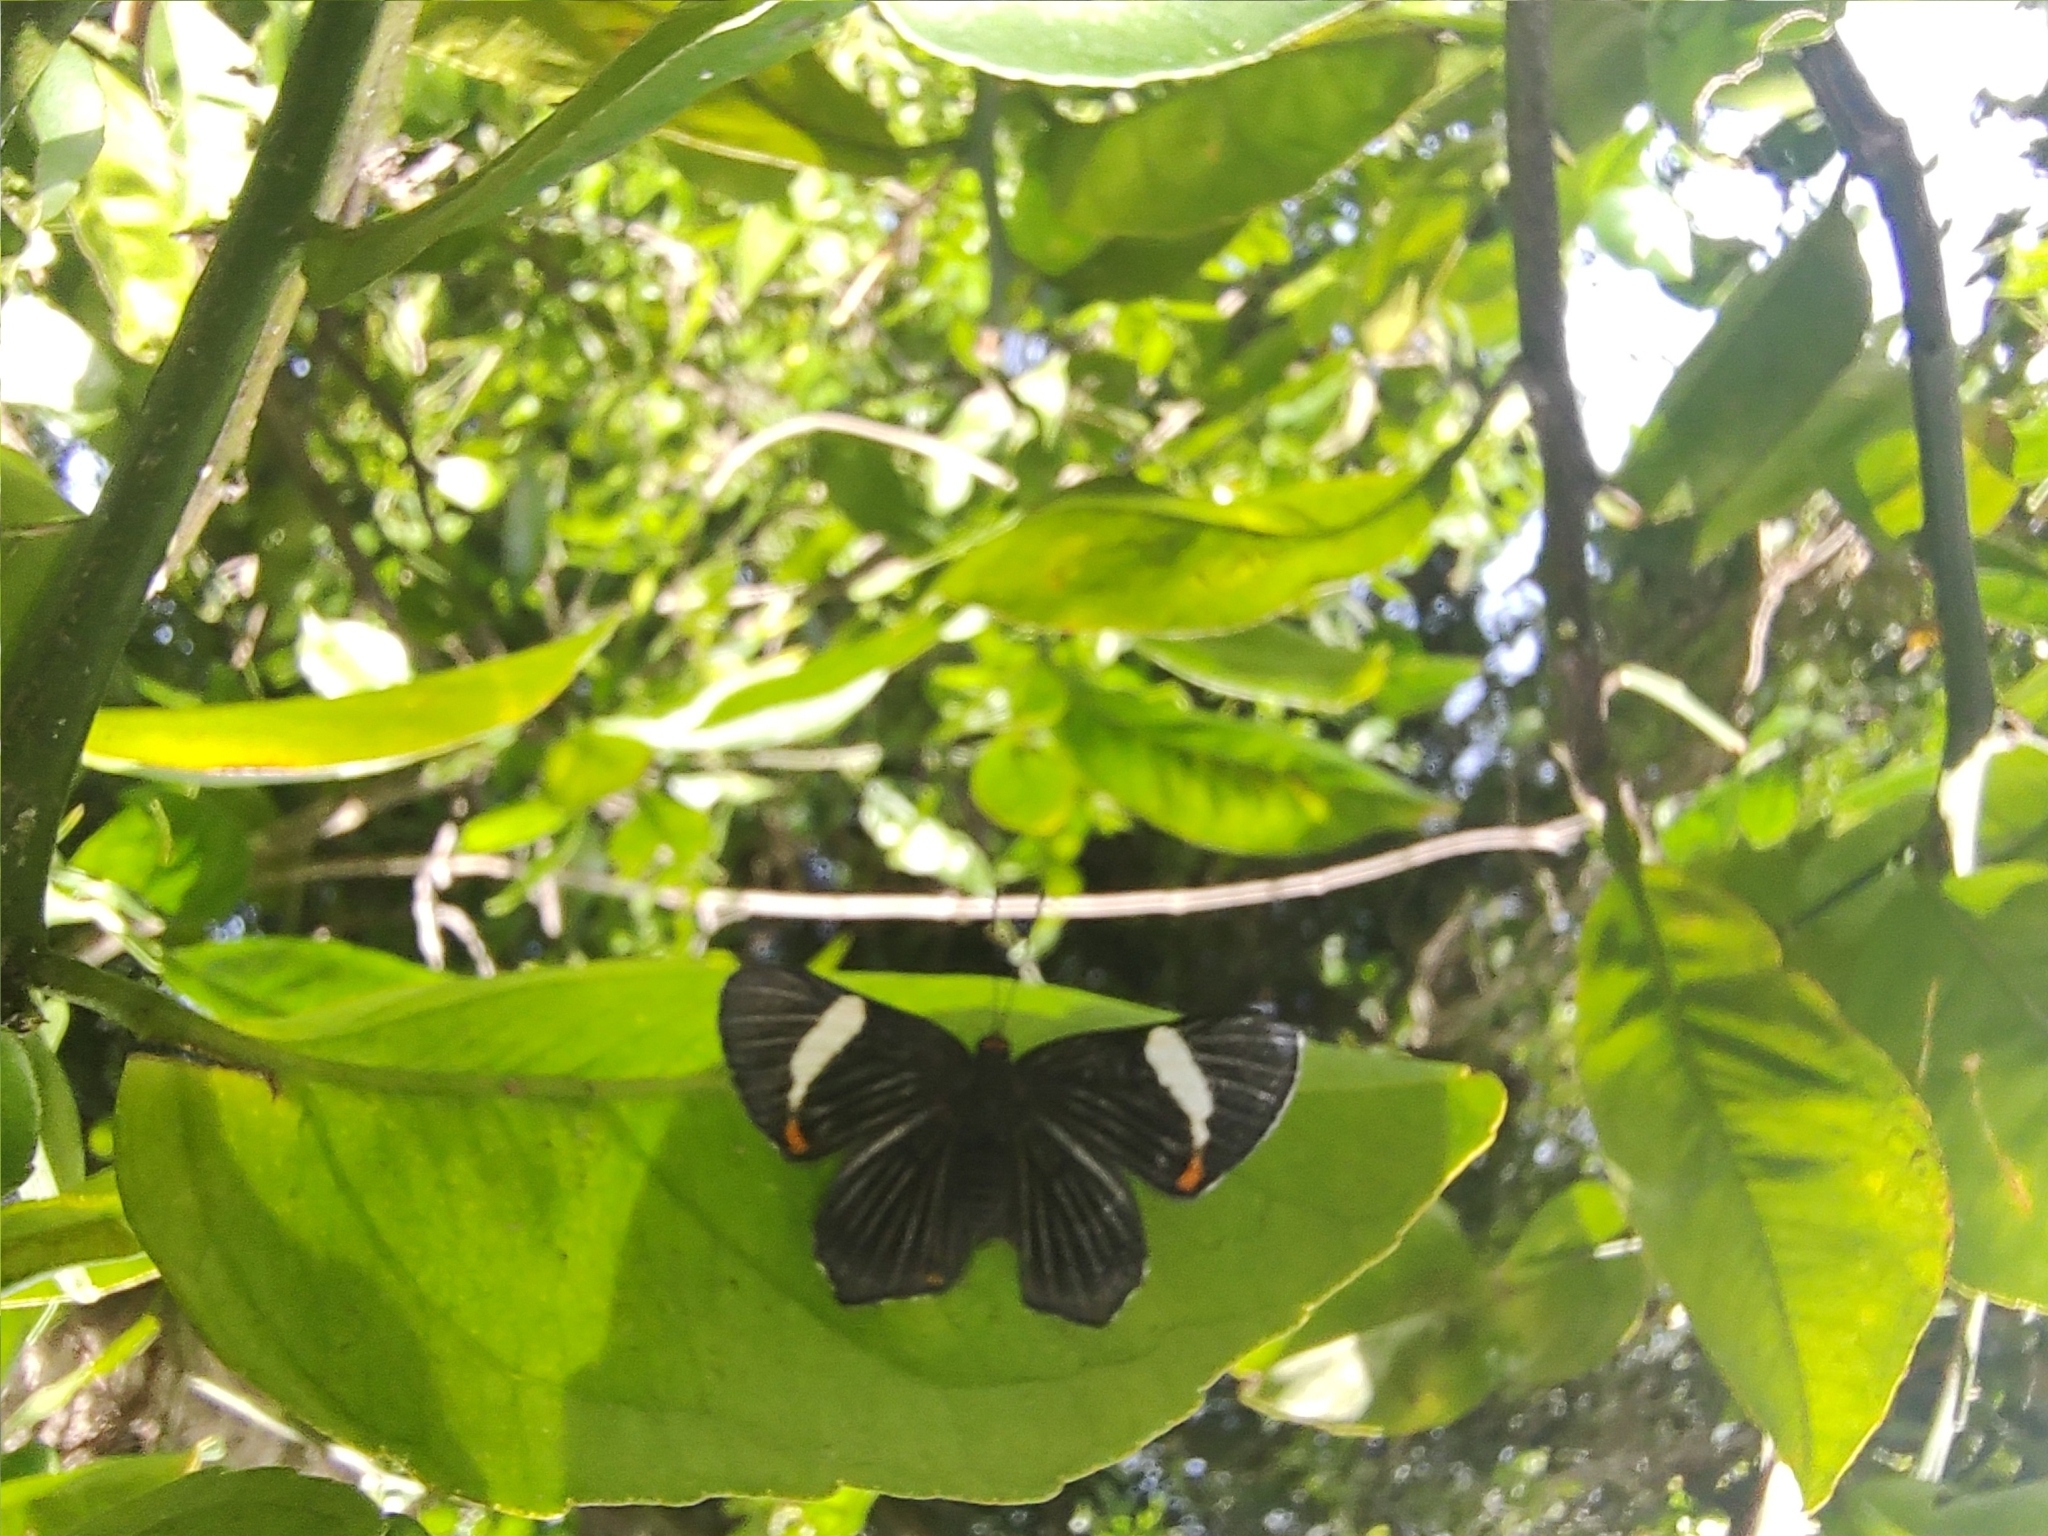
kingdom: Animalia
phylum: Arthropoda
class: Insecta
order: Lepidoptera
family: Riodinidae
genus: Riodina
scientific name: Riodina lycisca
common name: Lycisca metalmark
